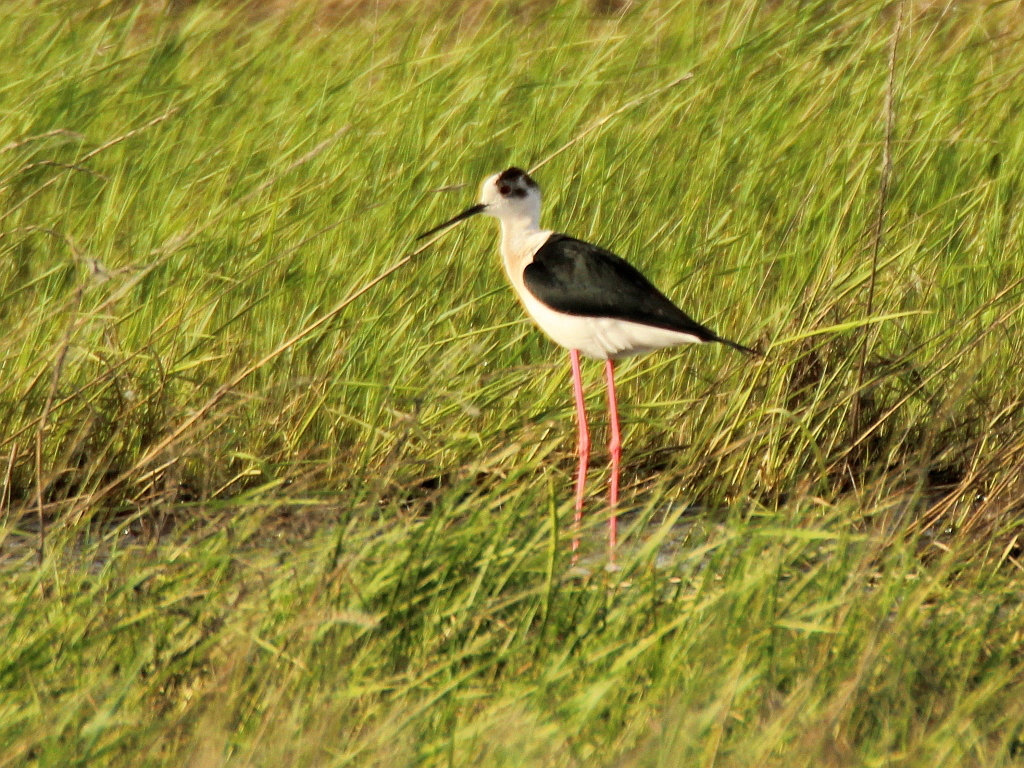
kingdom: Animalia
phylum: Chordata
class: Aves
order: Charadriiformes
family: Recurvirostridae
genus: Himantopus
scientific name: Himantopus himantopus
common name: Black-winged stilt
